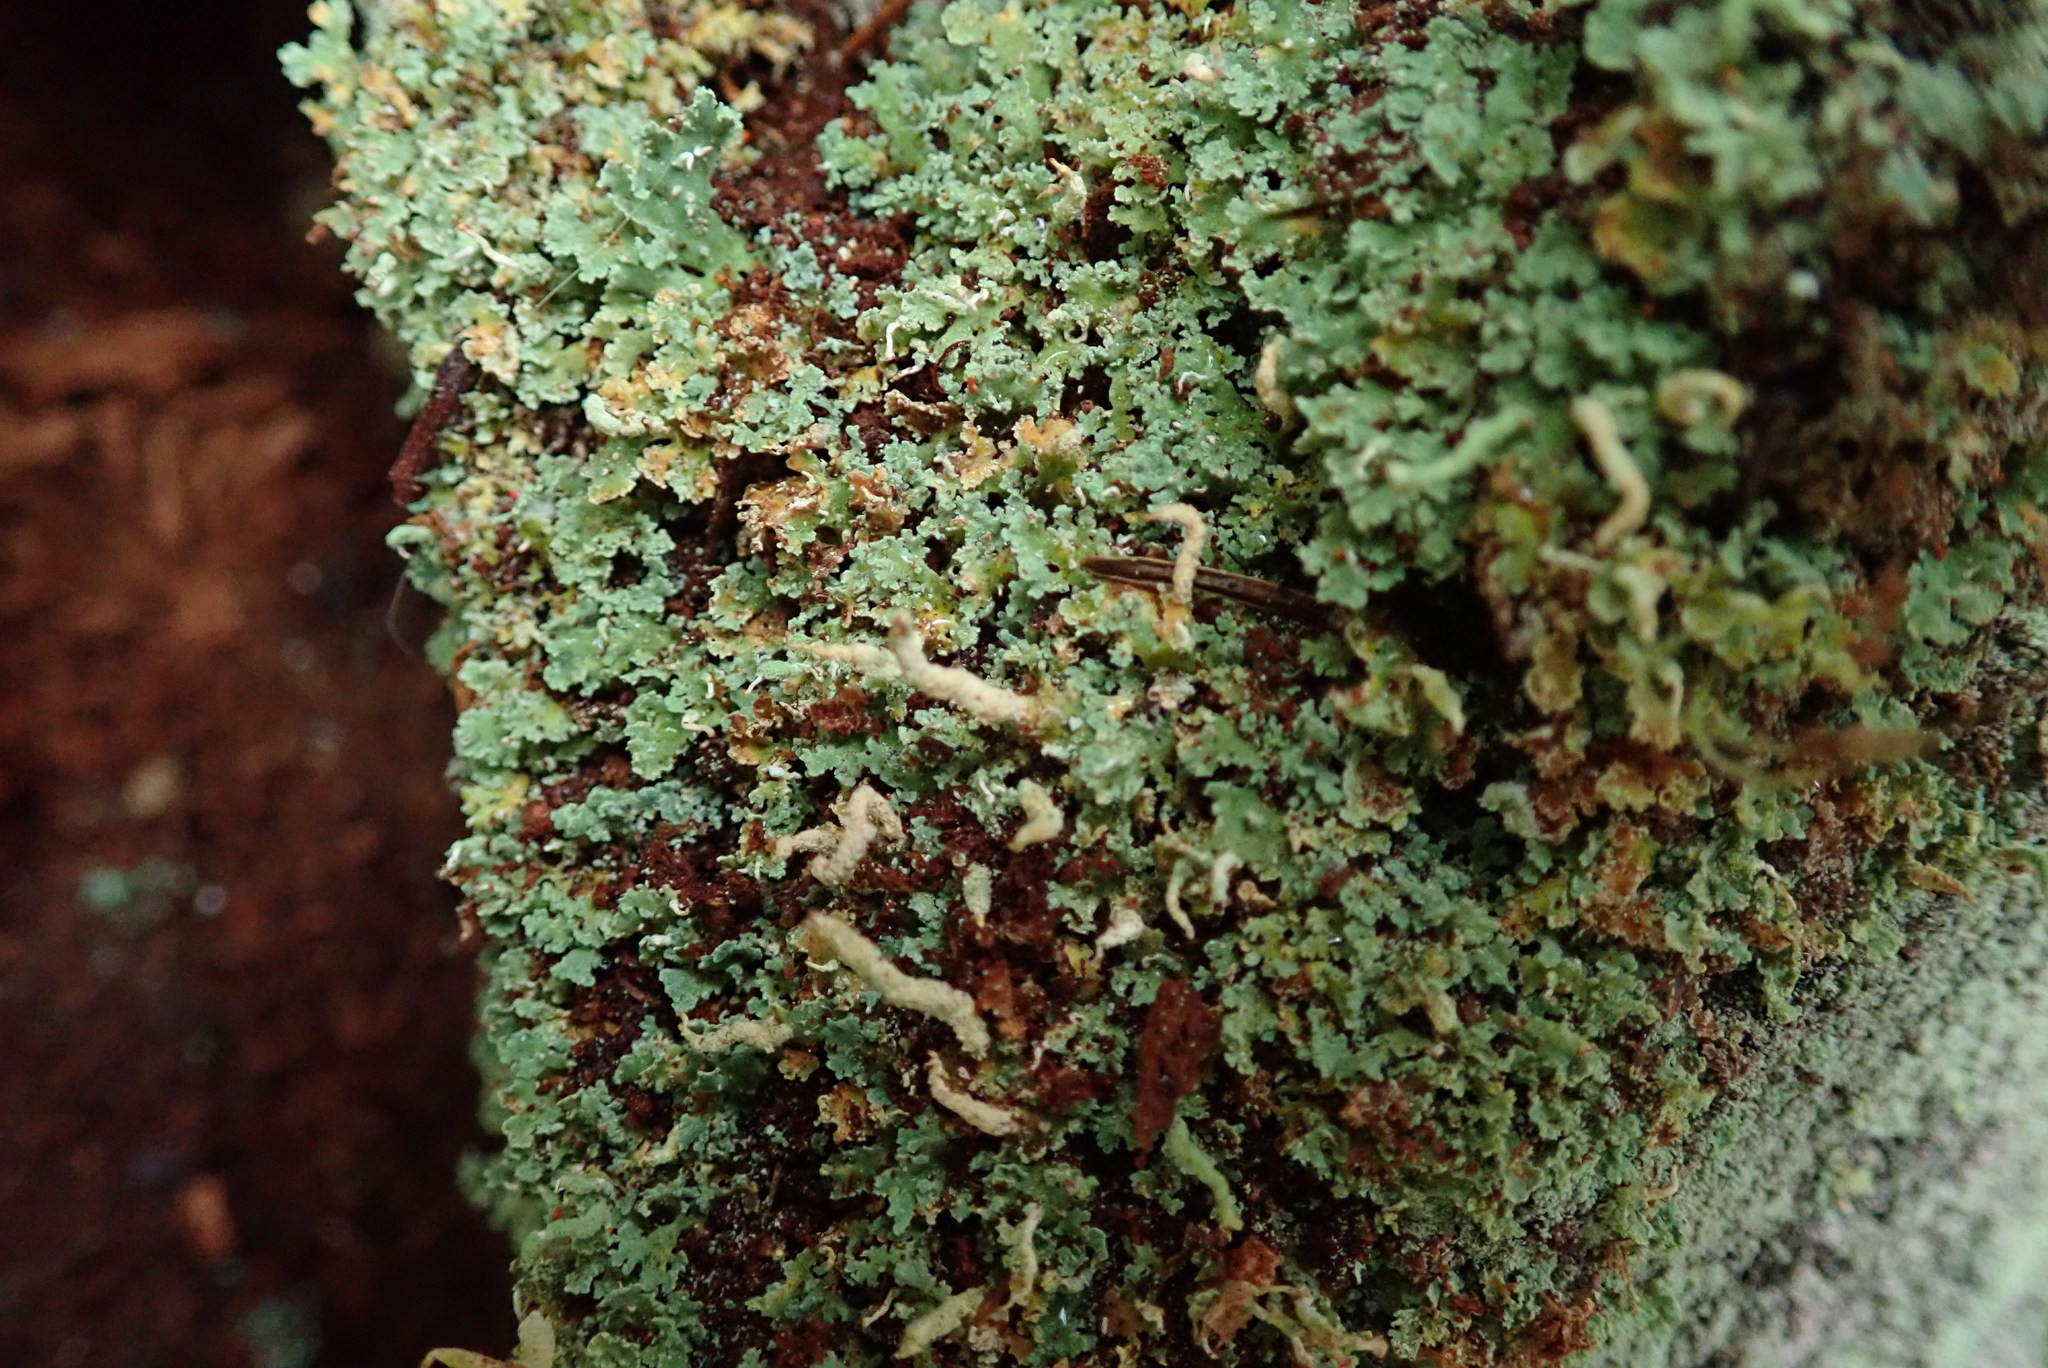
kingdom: Fungi
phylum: Ascomycota
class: Lecanoromycetes
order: Lecanorales
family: Cladoniaceae
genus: Cladonia
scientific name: Cladonia fimbriata
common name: Powdered trumpet lichen
